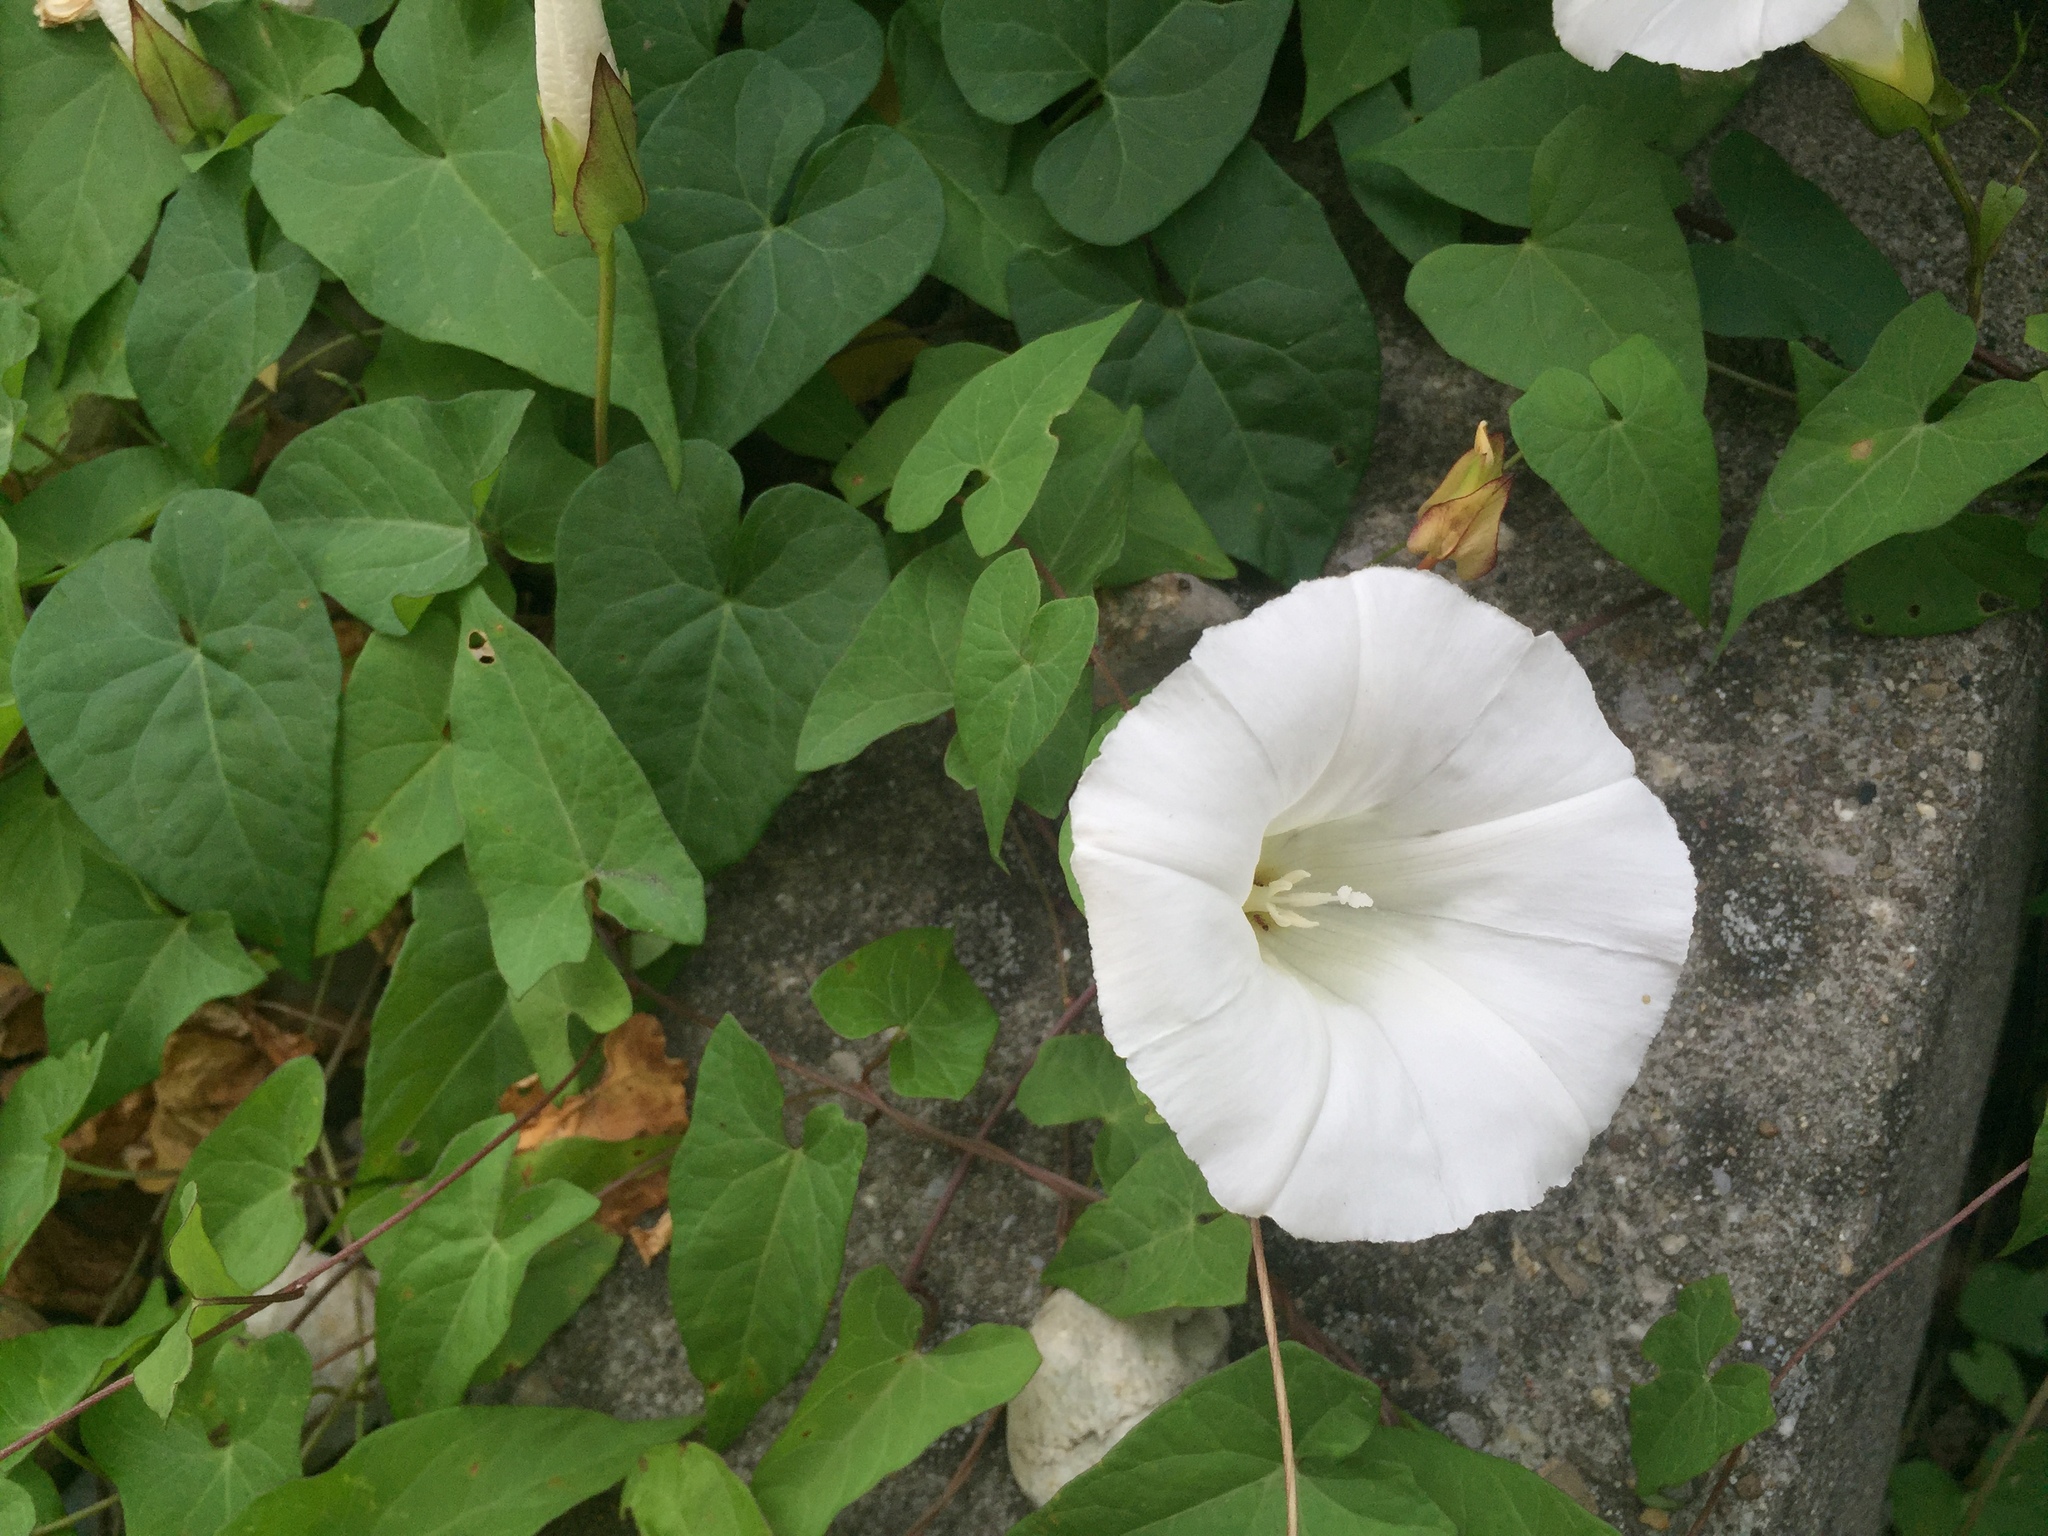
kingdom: Plantae
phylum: Tracheophyta
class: Magnoliopsida
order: Solanales
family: Convolvulaceae
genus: Calystegia
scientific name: Calystegia sepium
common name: Hedge bindweed
